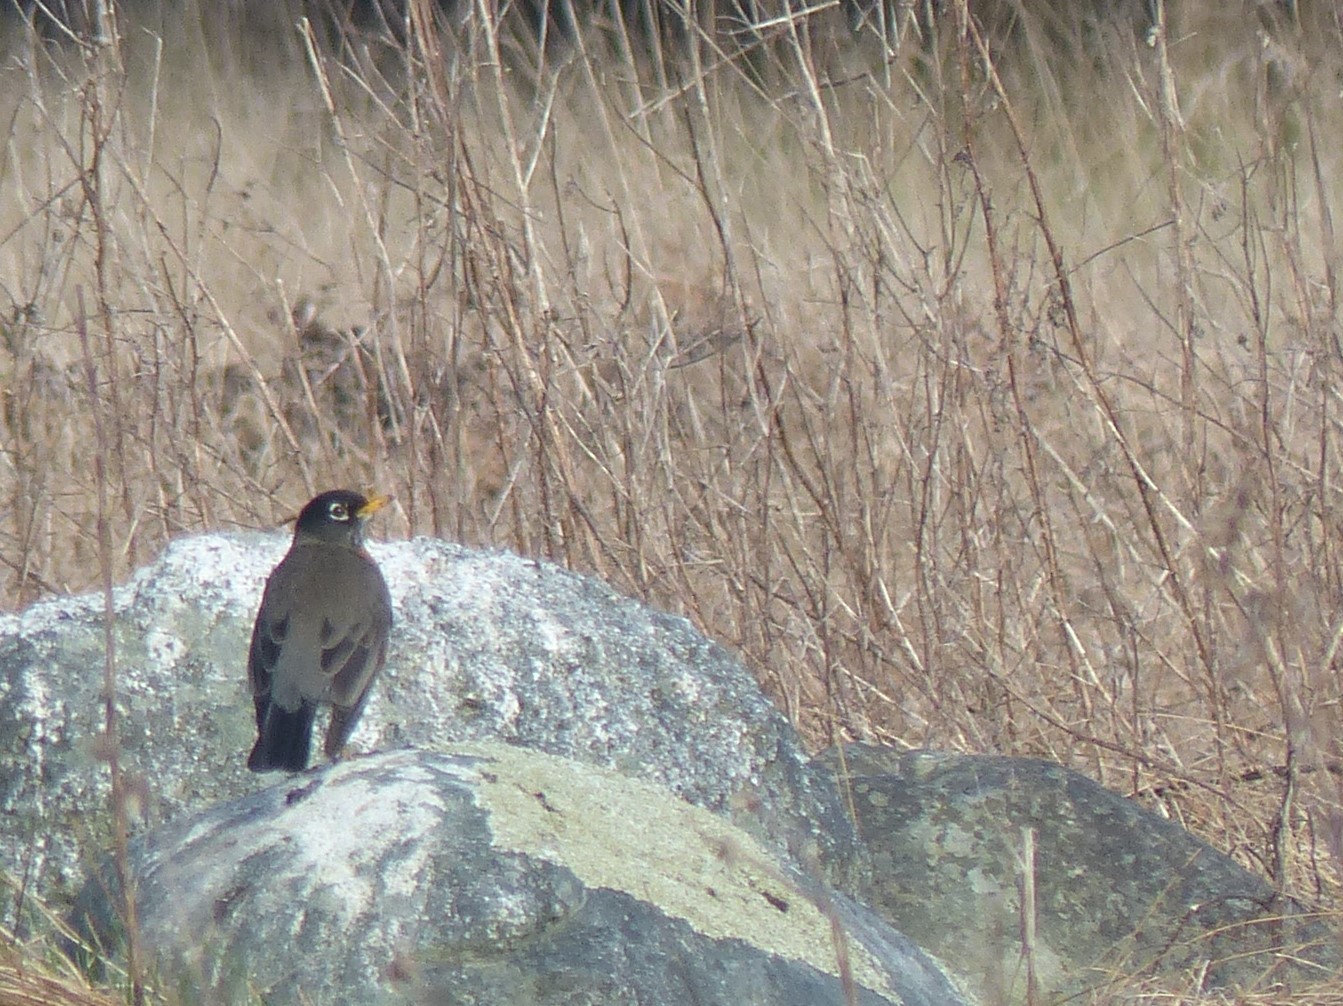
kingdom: Animalia
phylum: Chordata
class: Aves
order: Passeriformes
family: Turdidae
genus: Turdus
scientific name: Turdus migratorius
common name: American robin
